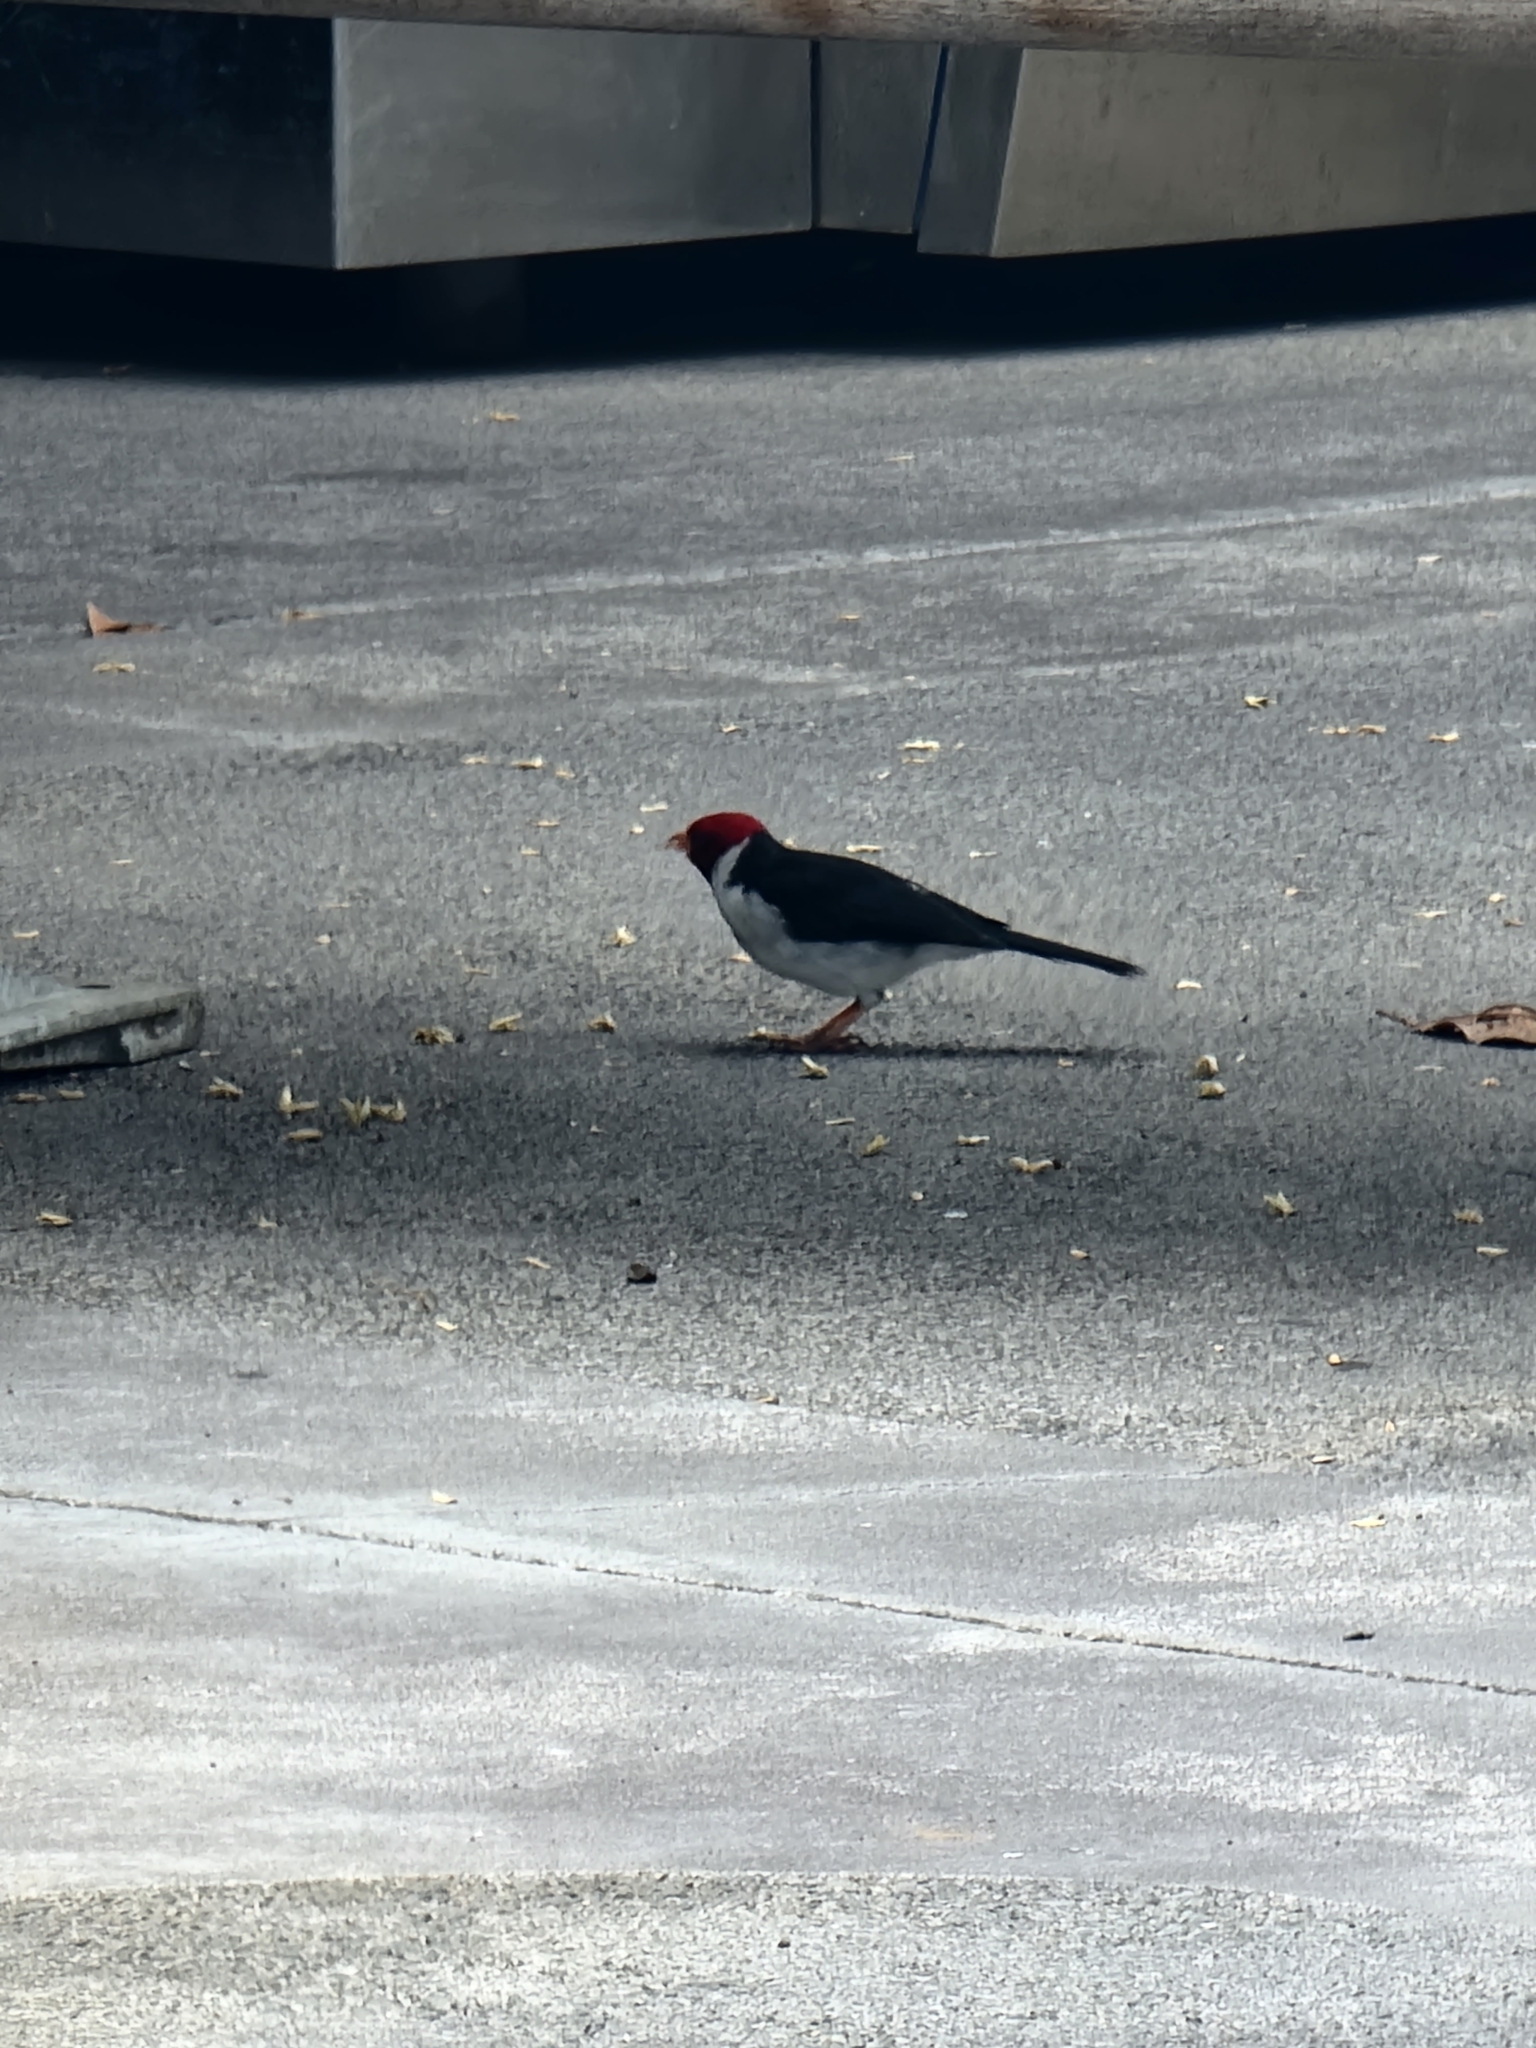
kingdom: Animalia
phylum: Chordata
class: Aves
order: Passeriformes
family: Thraupidae
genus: Paroaria
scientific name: Paroaria capitata
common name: Yellow-billed cardinal
